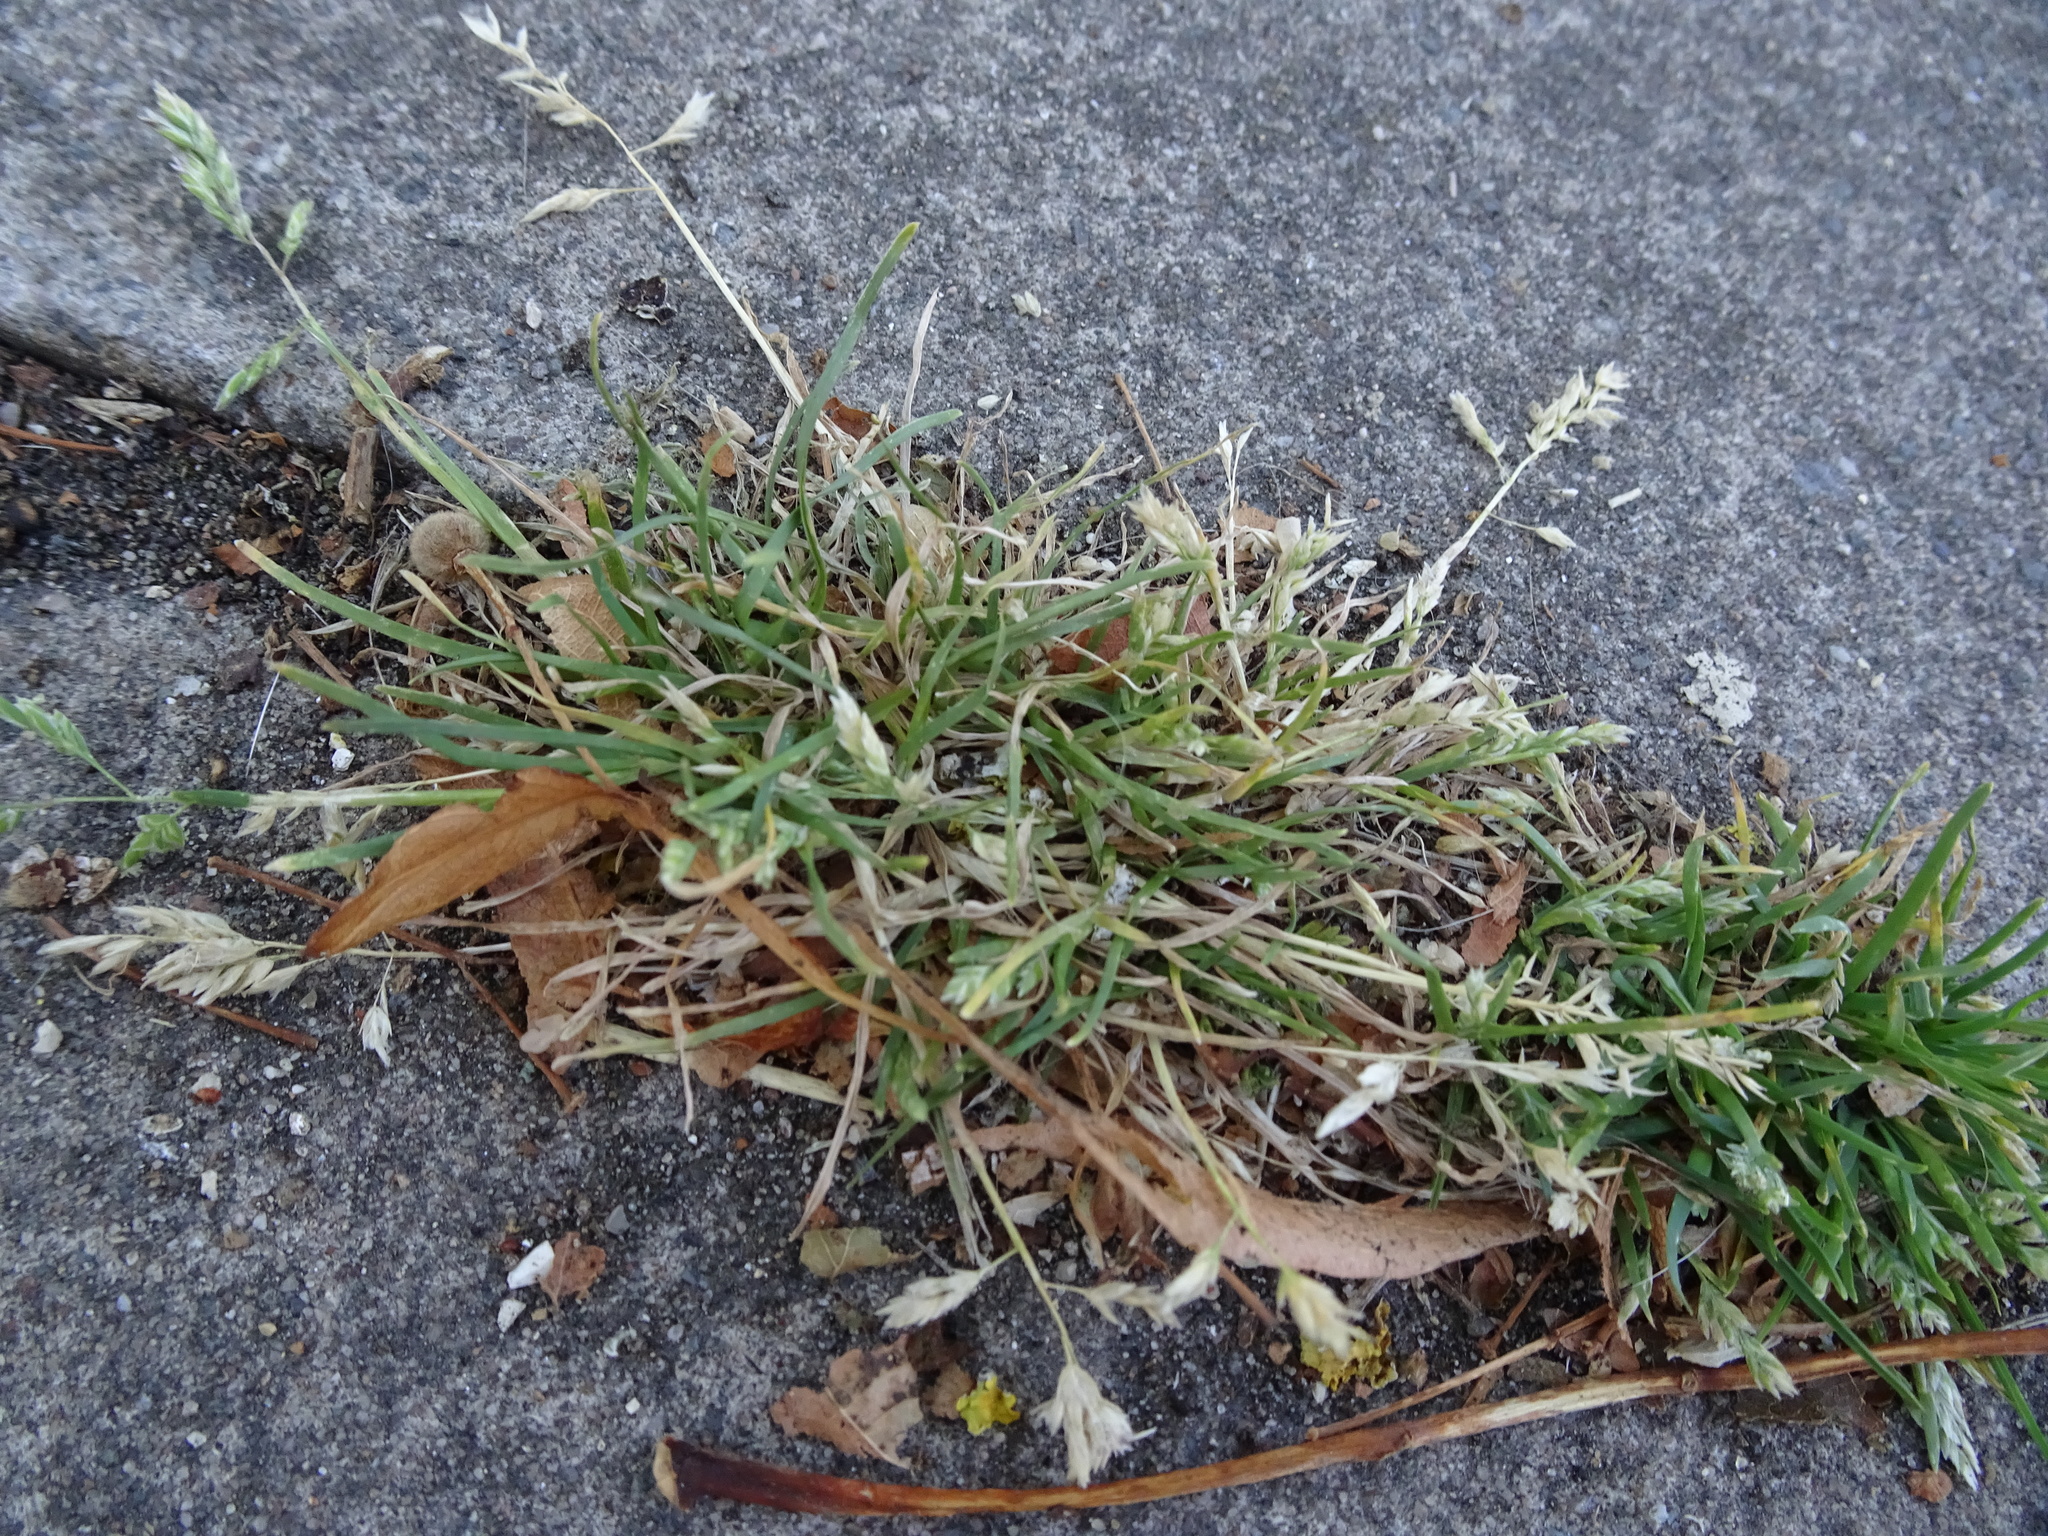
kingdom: Plantae
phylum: Tracheophyta
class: Liliopsida
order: Poales
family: Poaceae
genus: Poa
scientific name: Poa annua
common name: Annual bluegrass
